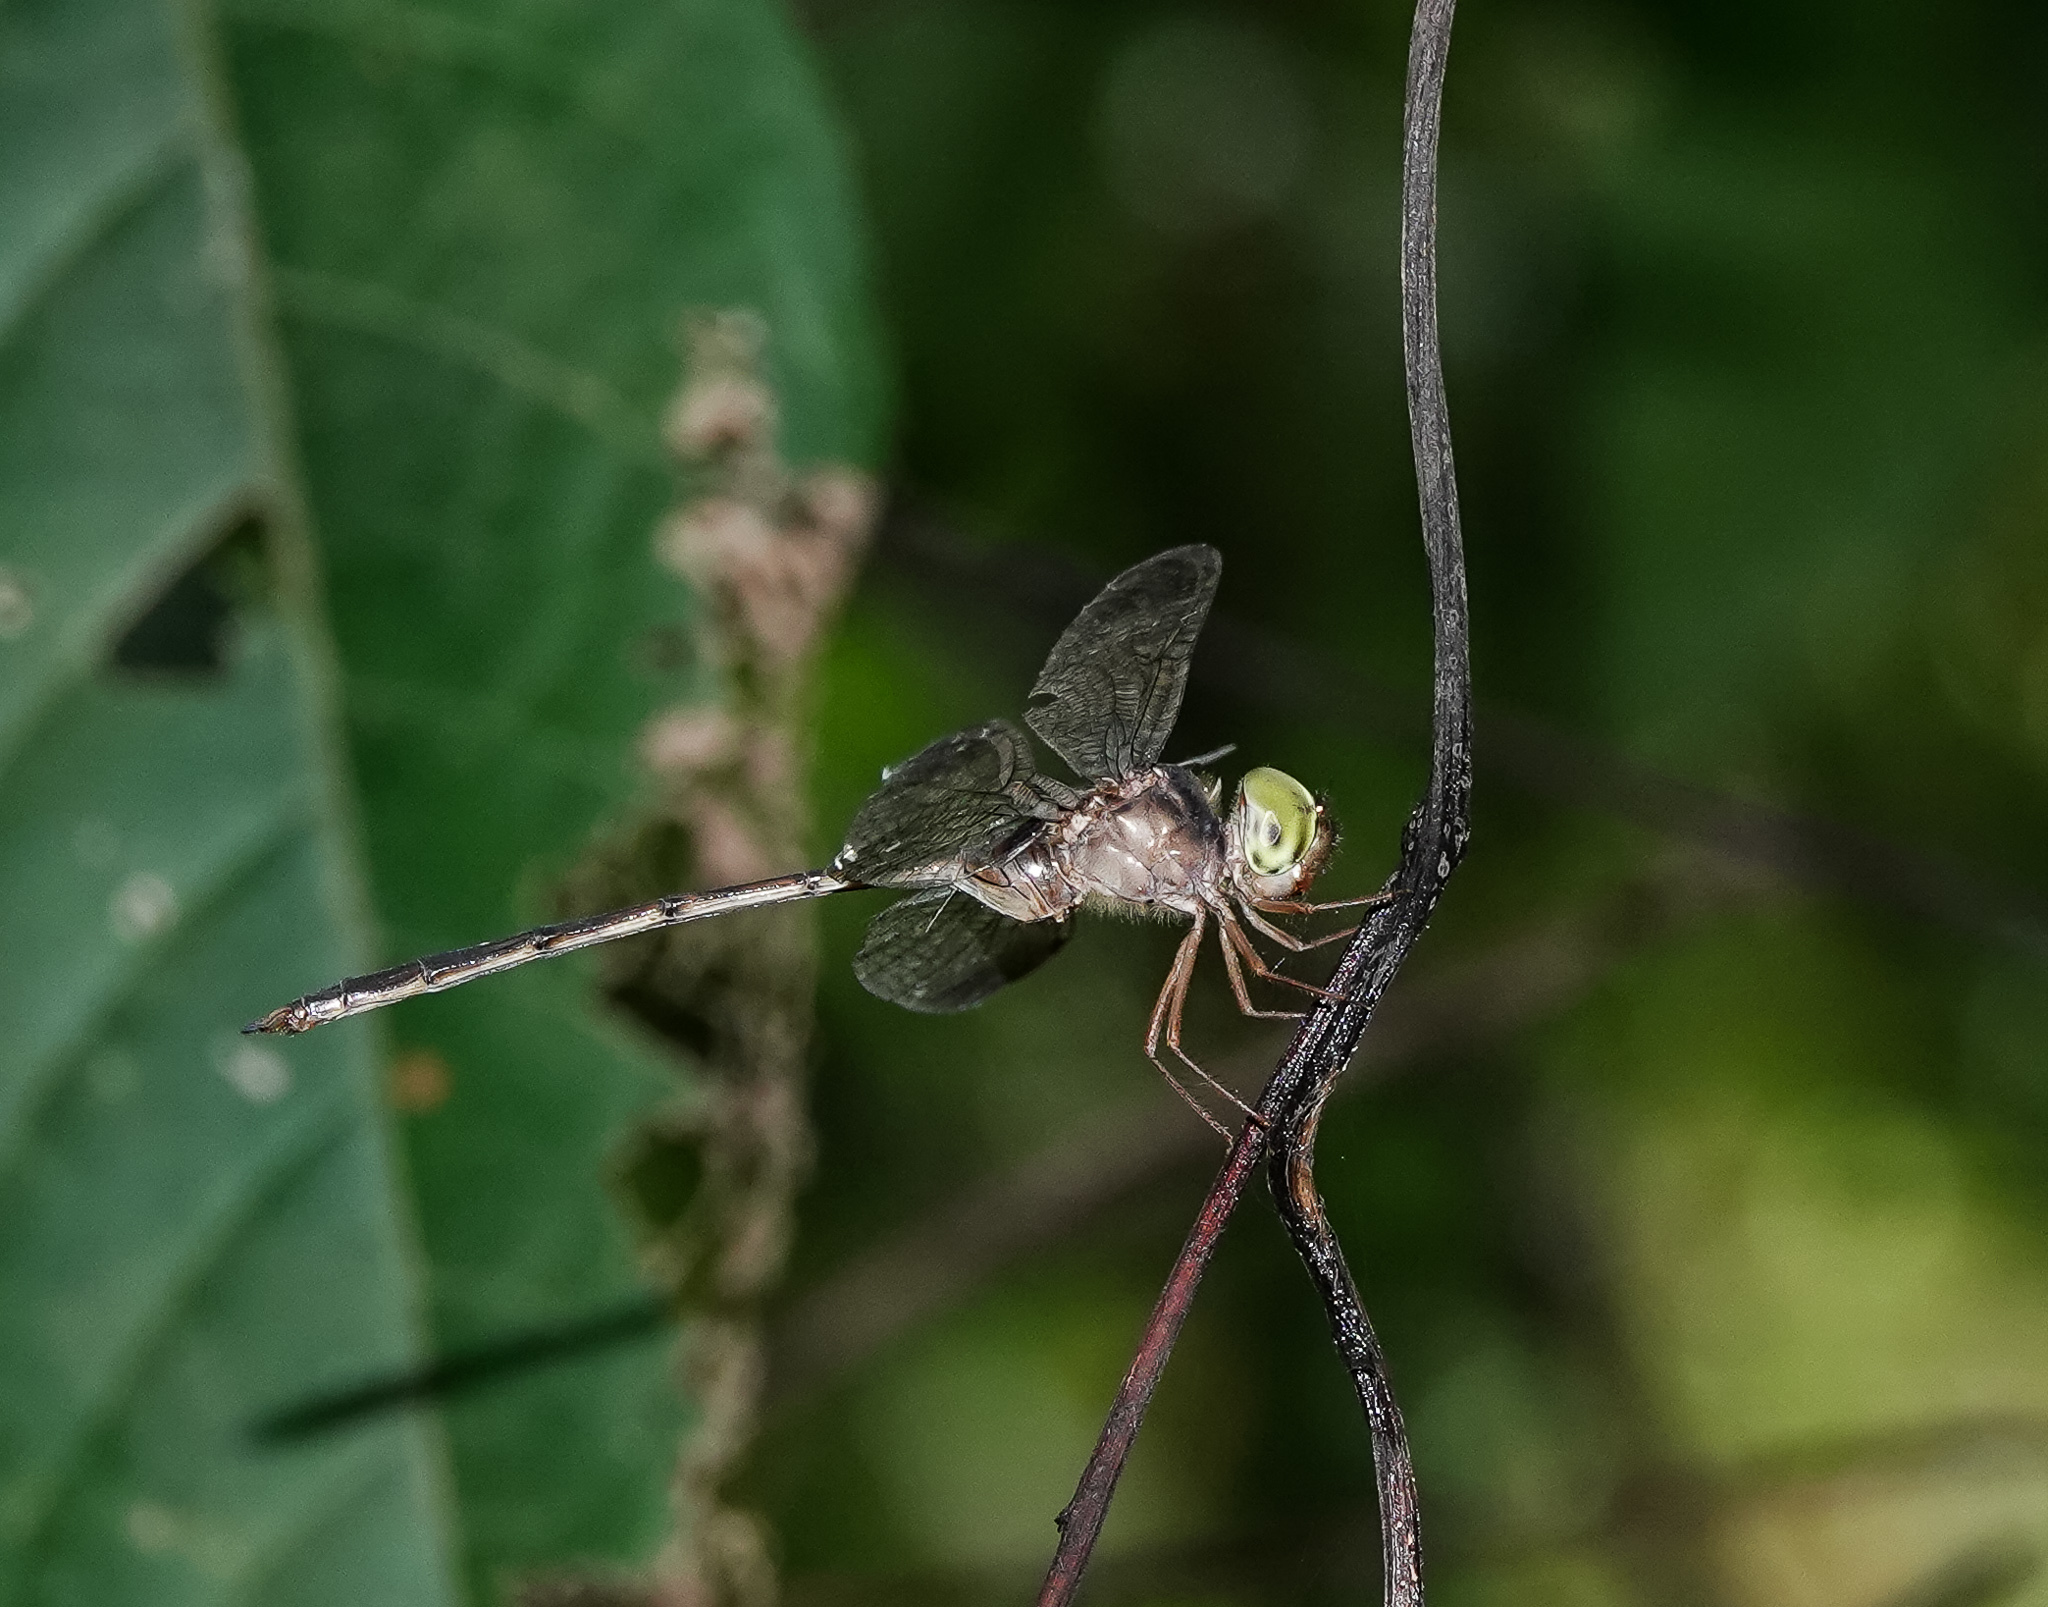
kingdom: Animalia
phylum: Arthropoda
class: Insecta
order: Odonata
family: Libellulidae
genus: Zyxomma
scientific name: Zyxomma petiolatum
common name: Dingy dusk-darter
